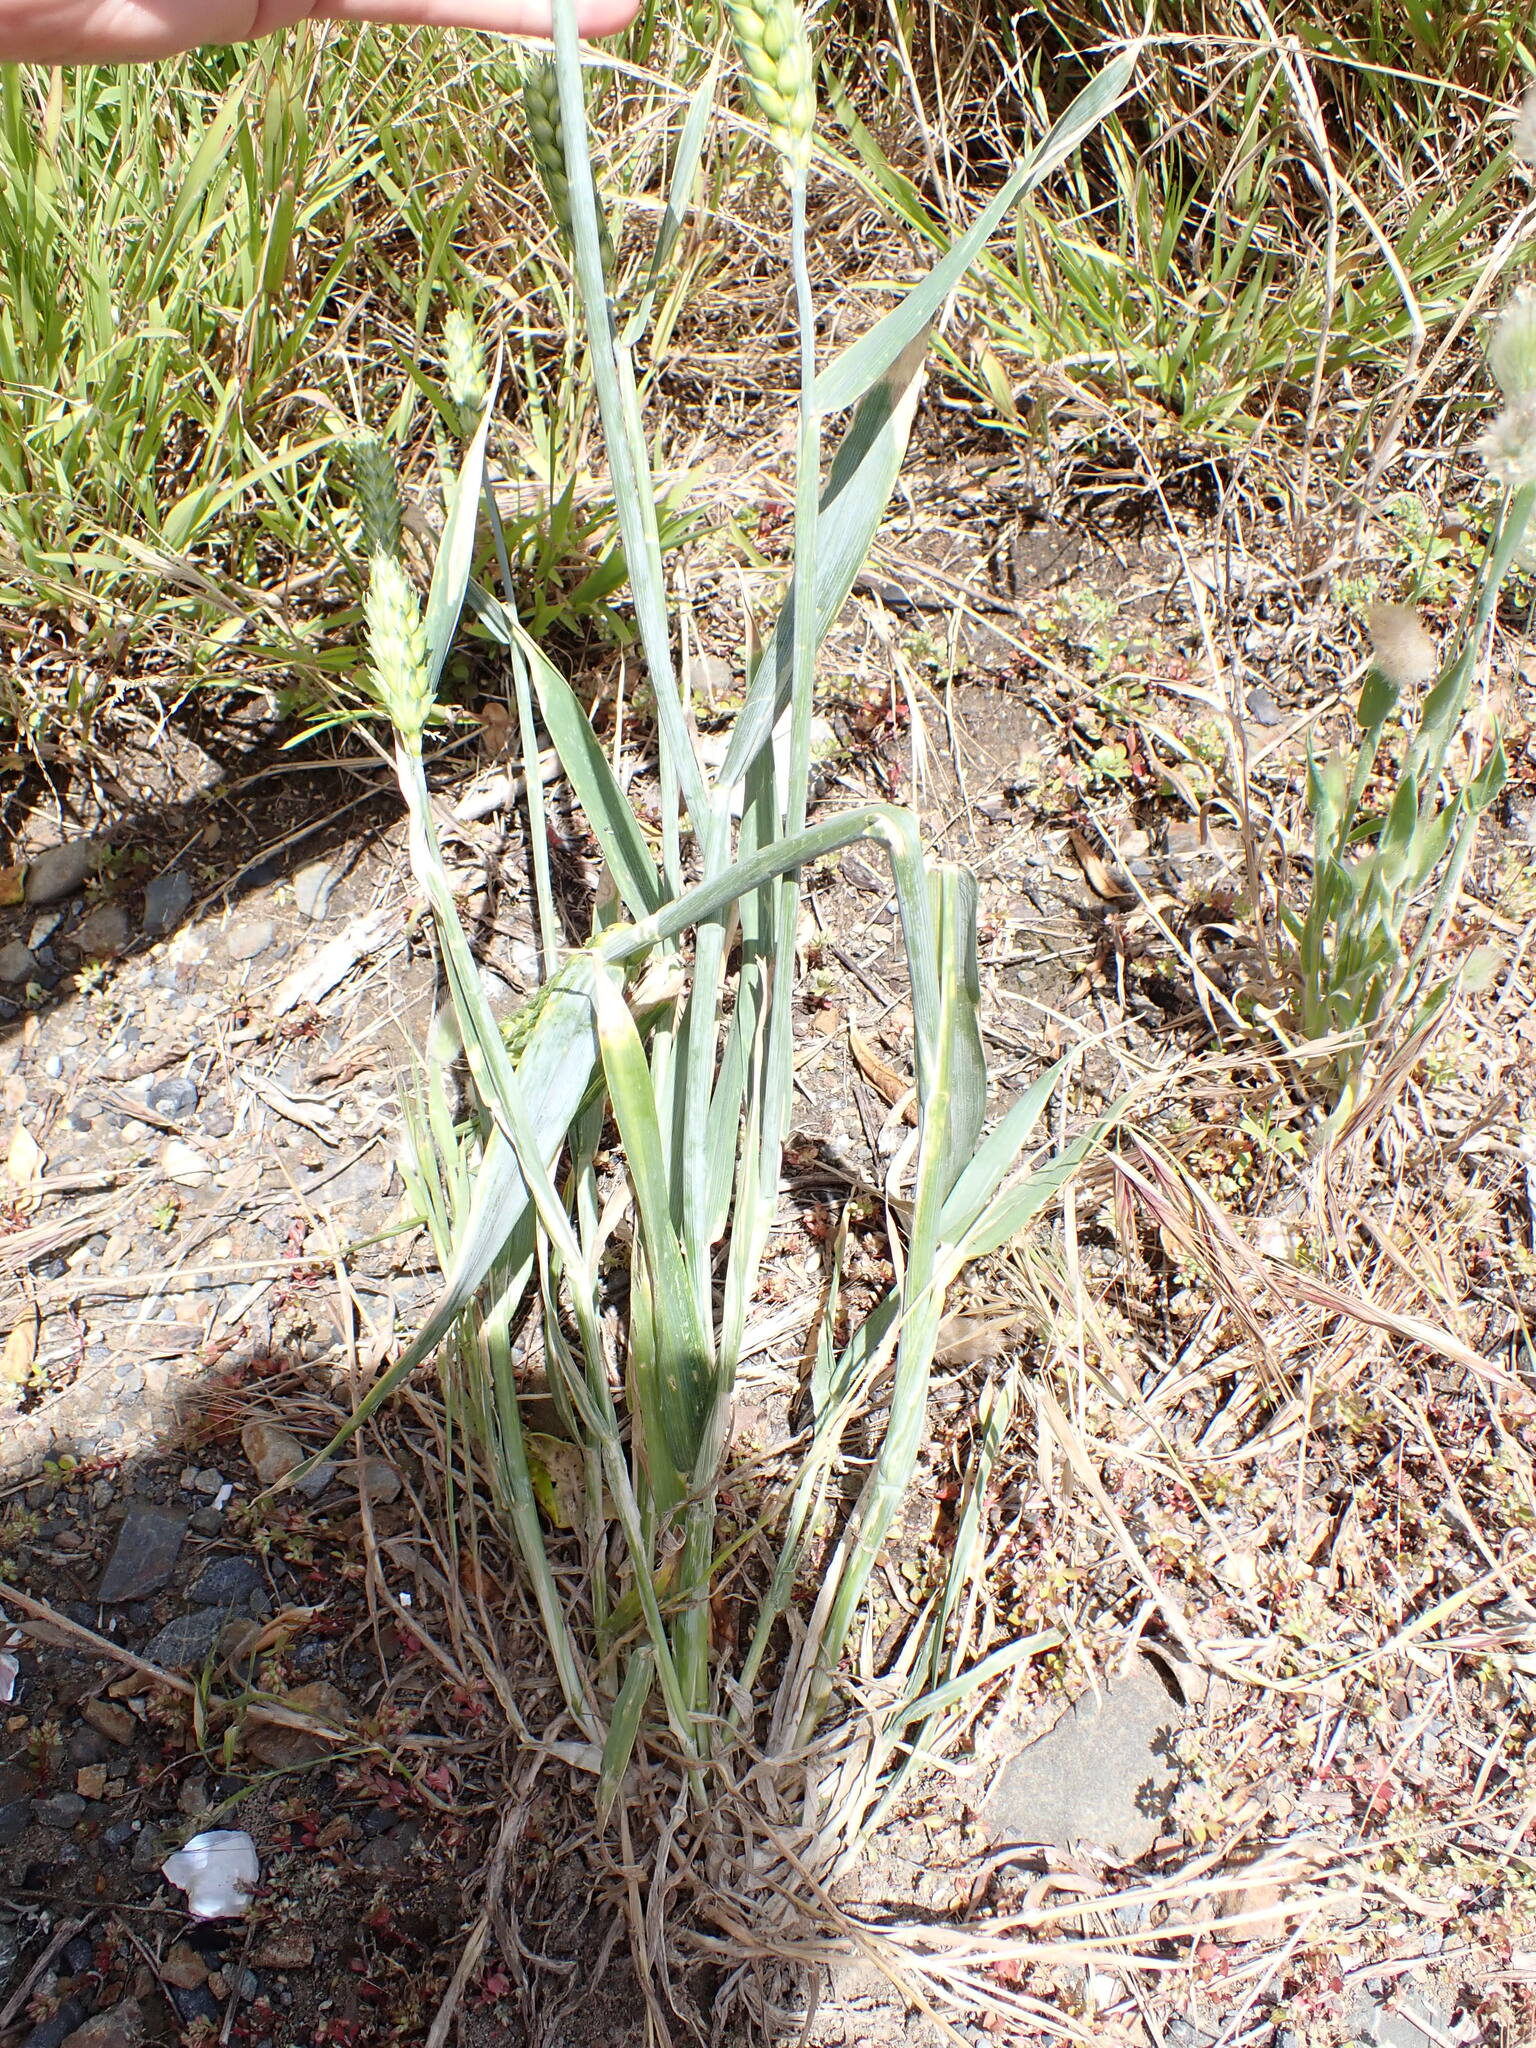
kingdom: Plantae
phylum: Tracheophyta
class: Liliopsida
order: Poales
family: Poaceae
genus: Triticum
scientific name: Triticum aestivum
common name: Common wheat
